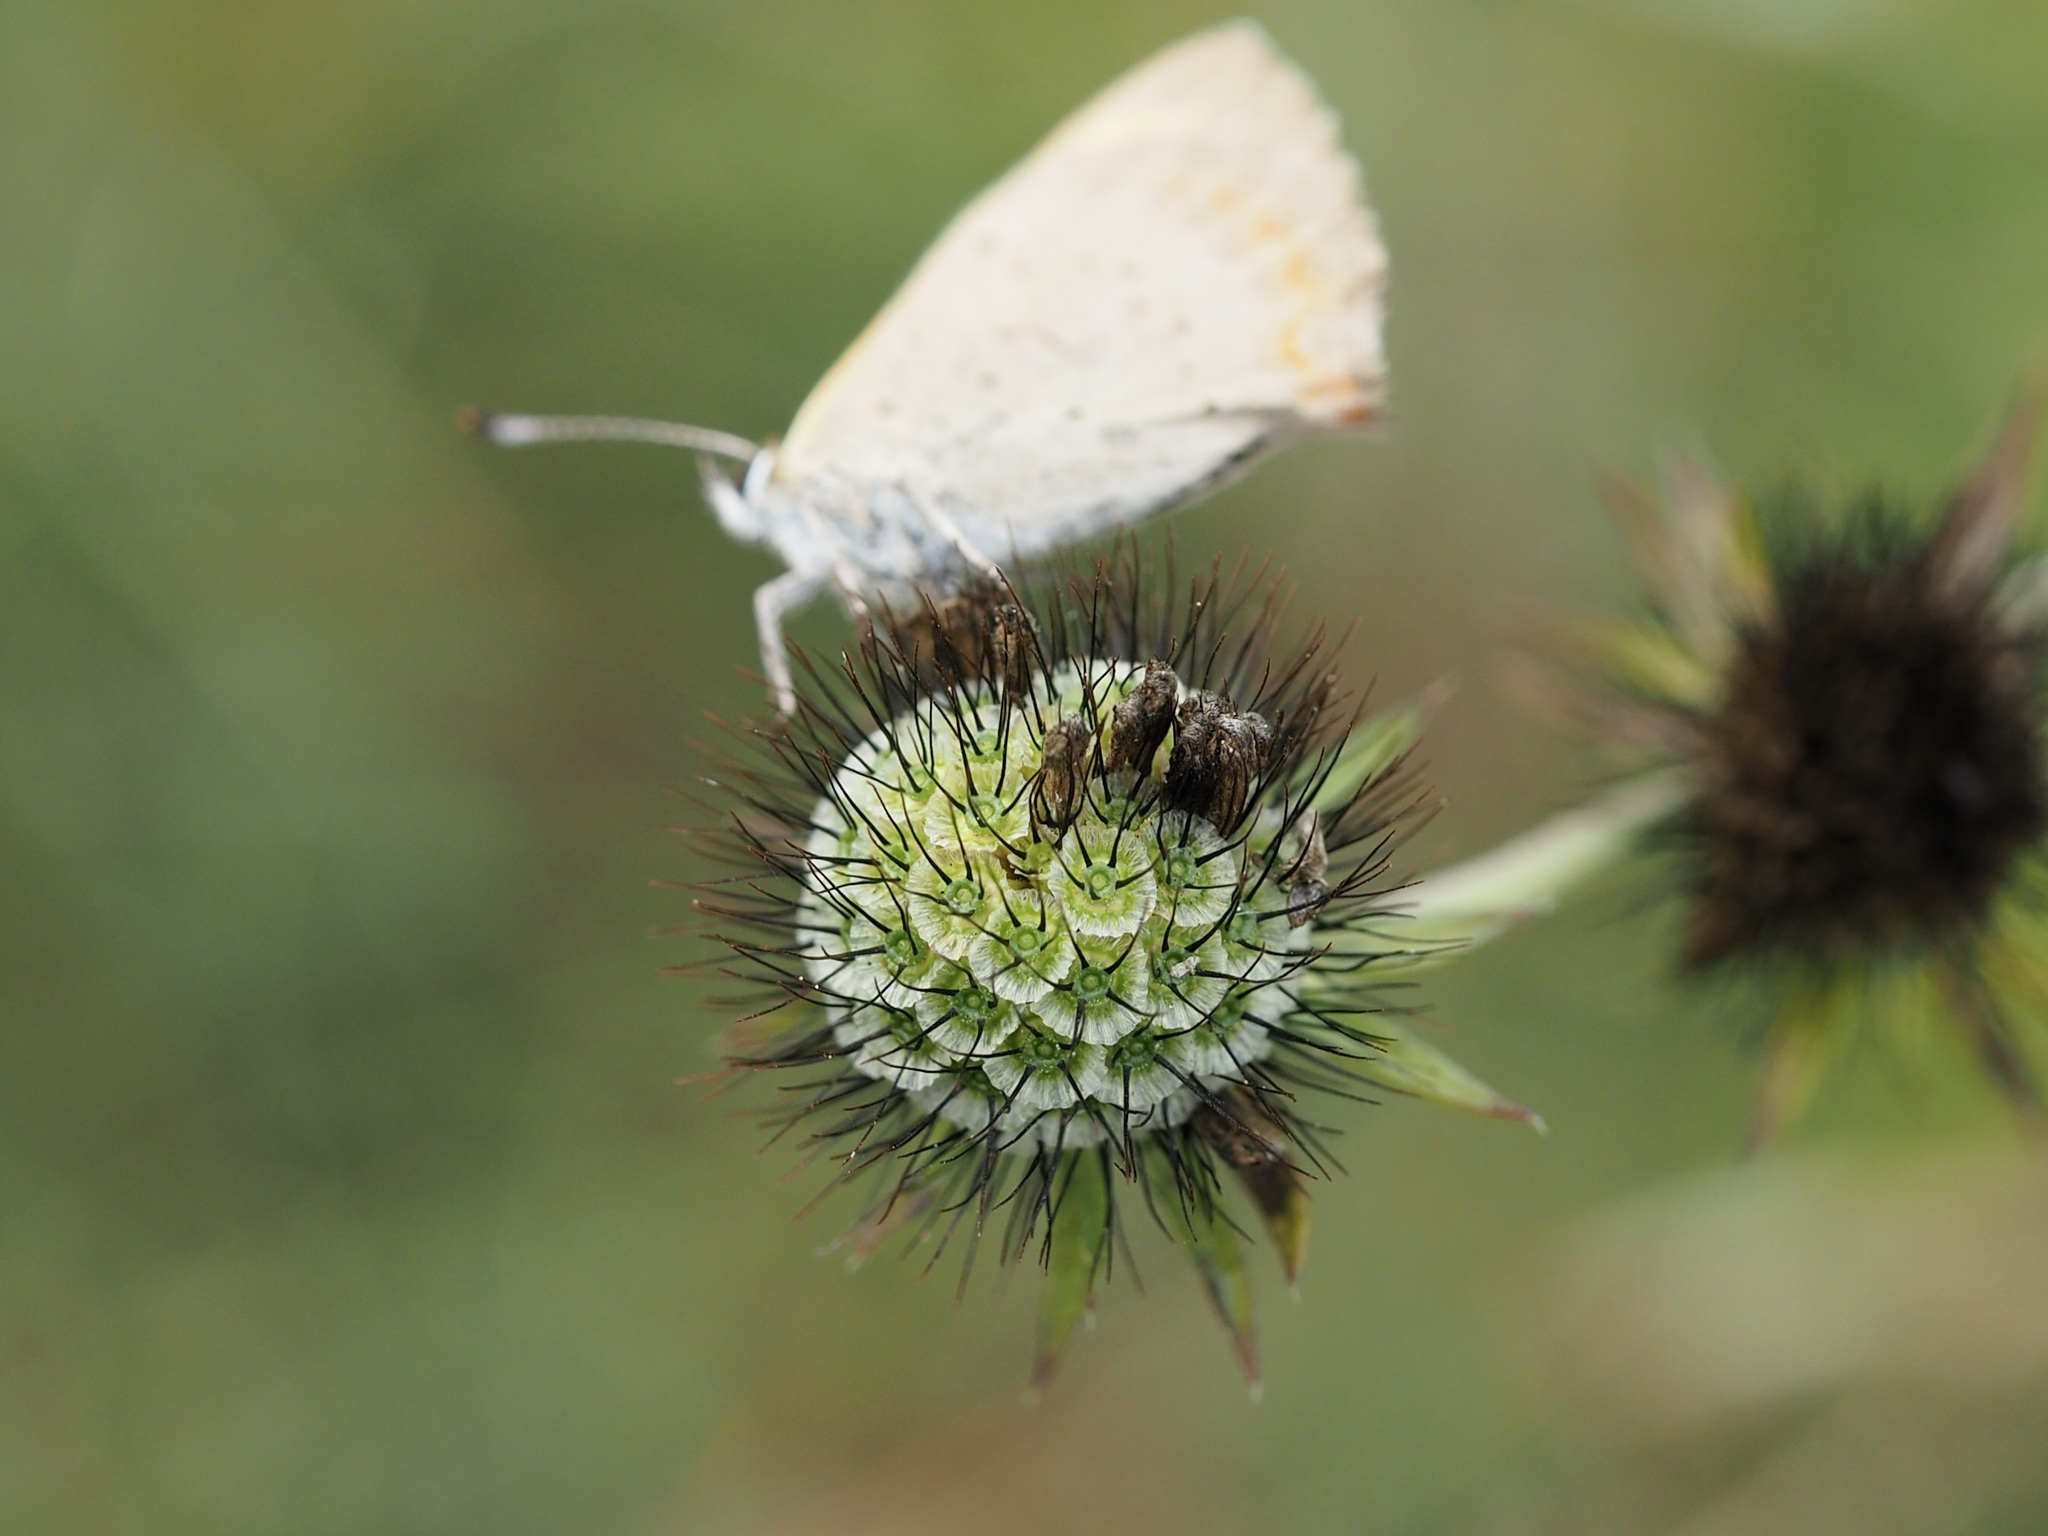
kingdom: Plantae
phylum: Tracheophyta
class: Magnoliopsida
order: Dipsacales
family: Caprifoliaceae
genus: Scabiosa
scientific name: Scabiosa columbaria
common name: Small scabious
